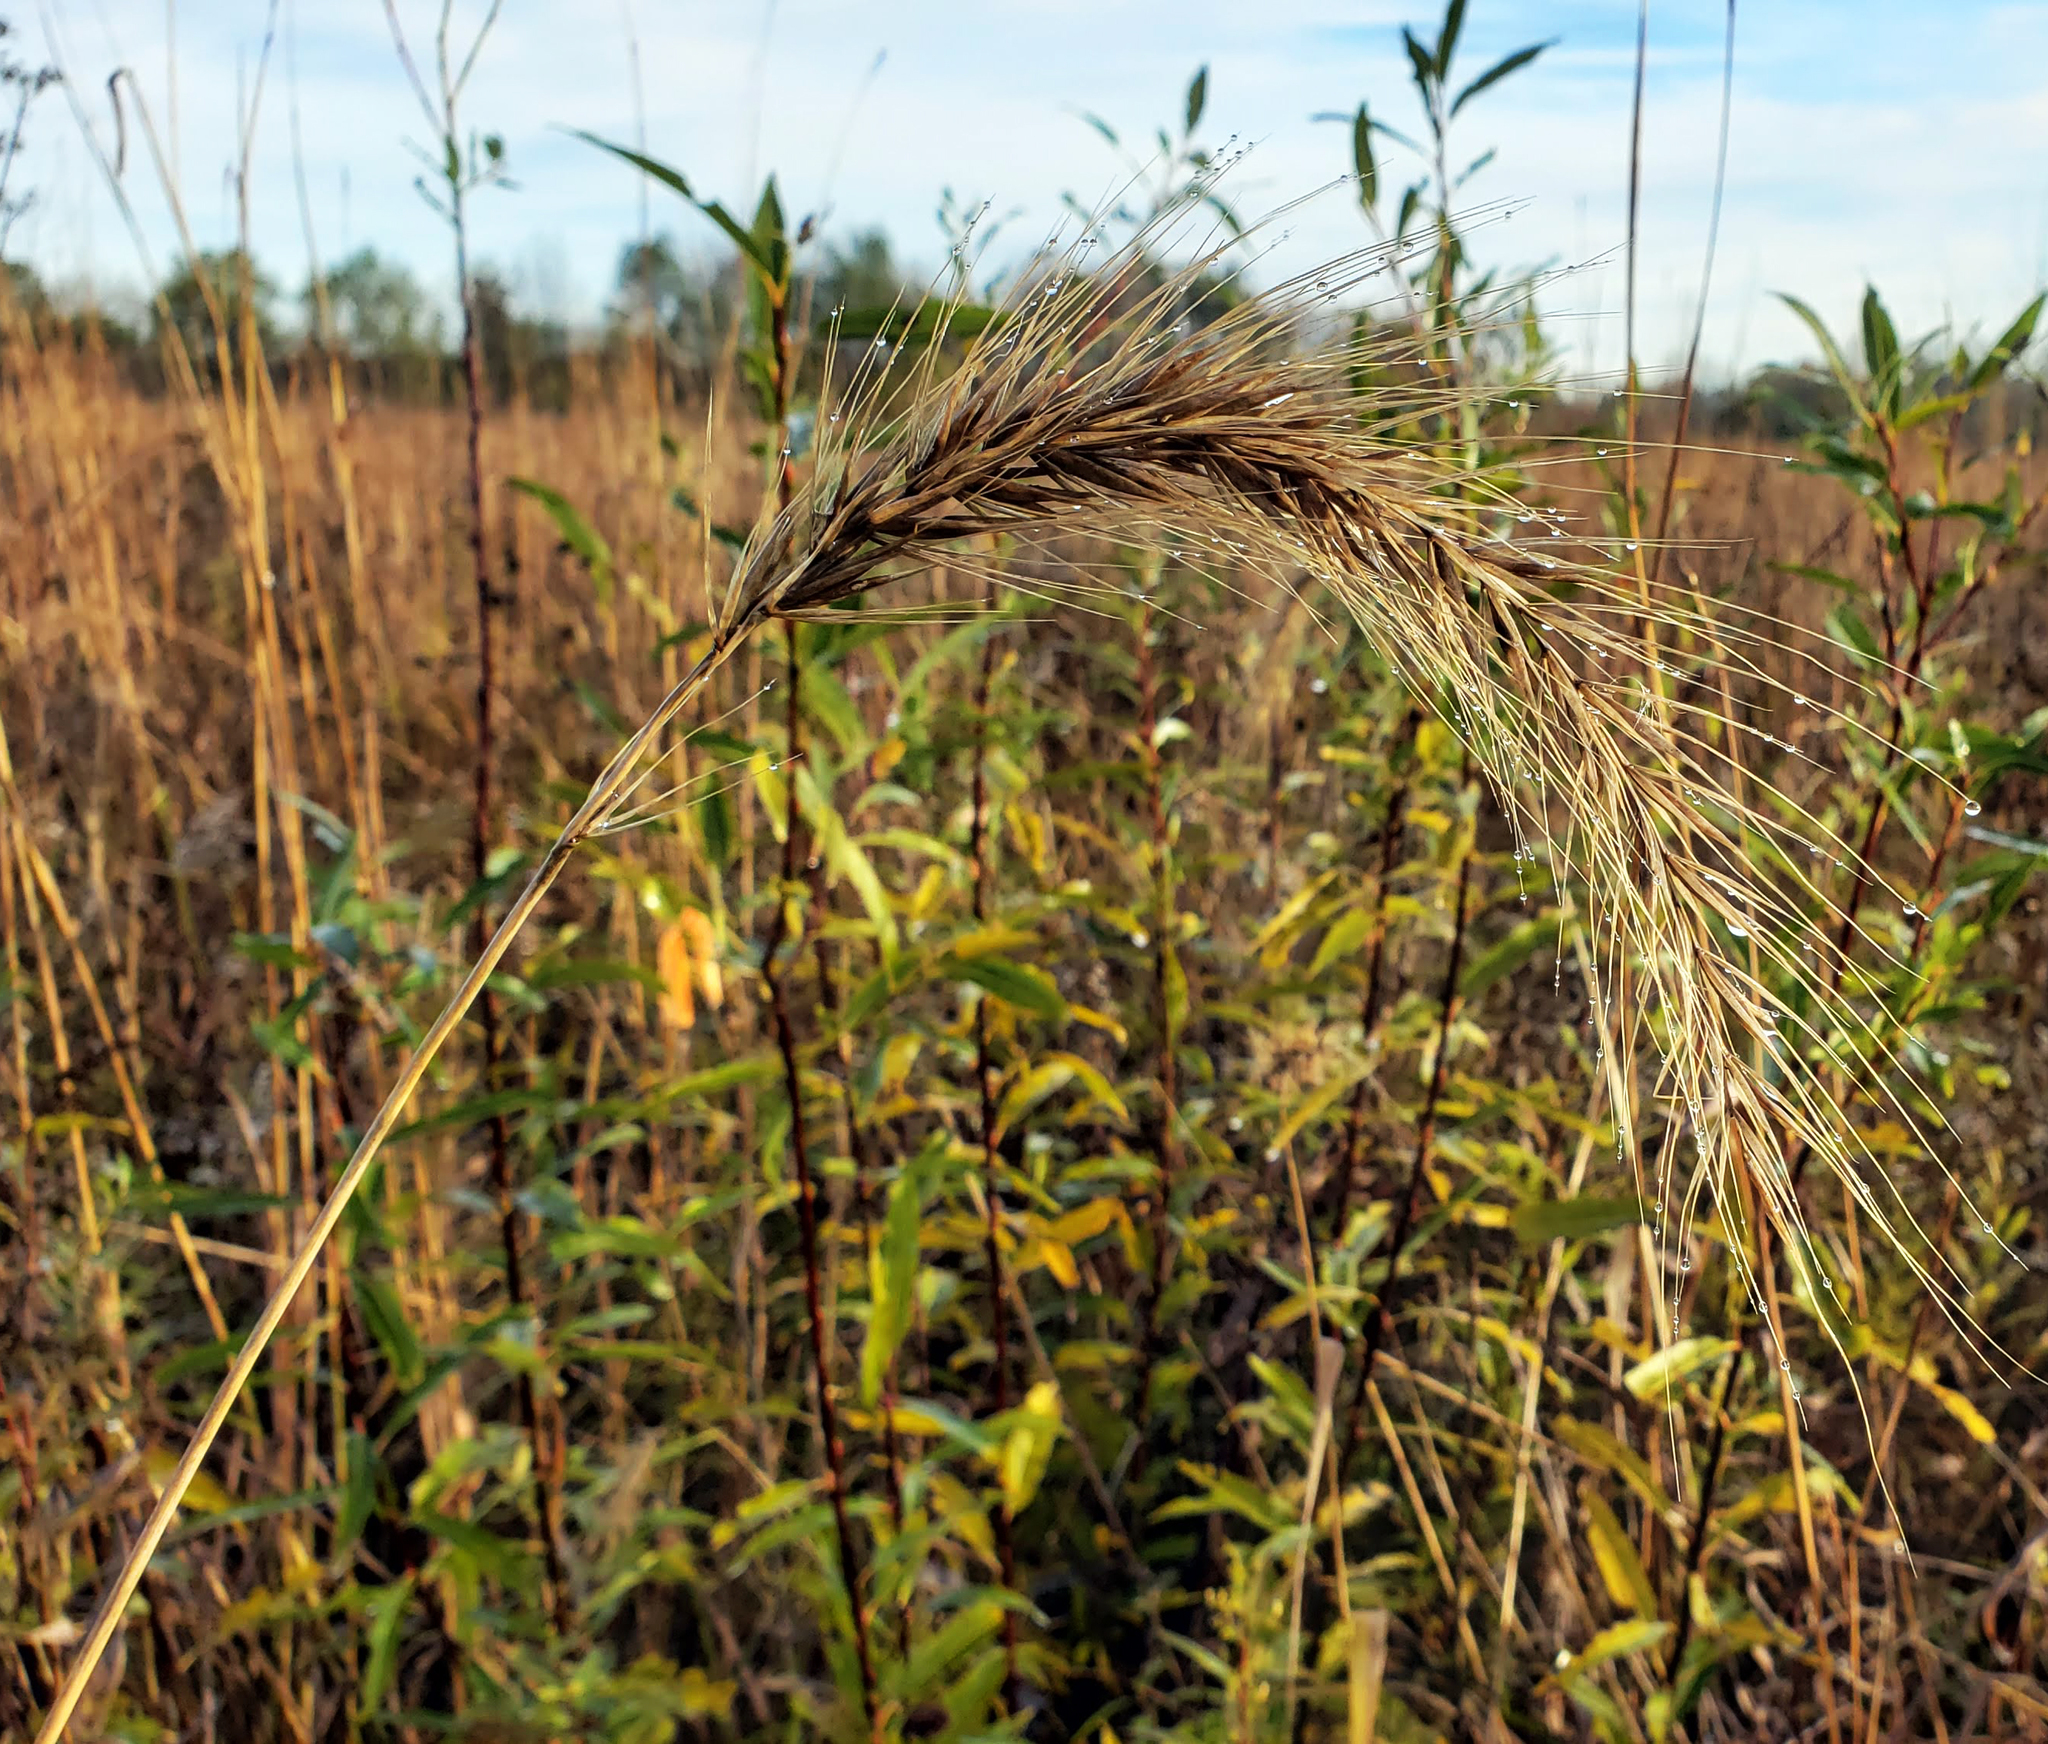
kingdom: Plantae
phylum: Tracheophyta
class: Liliopsida
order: Poales
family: Poaceae
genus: Elymus
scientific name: Elymus canadensis
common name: Canada wild rye
